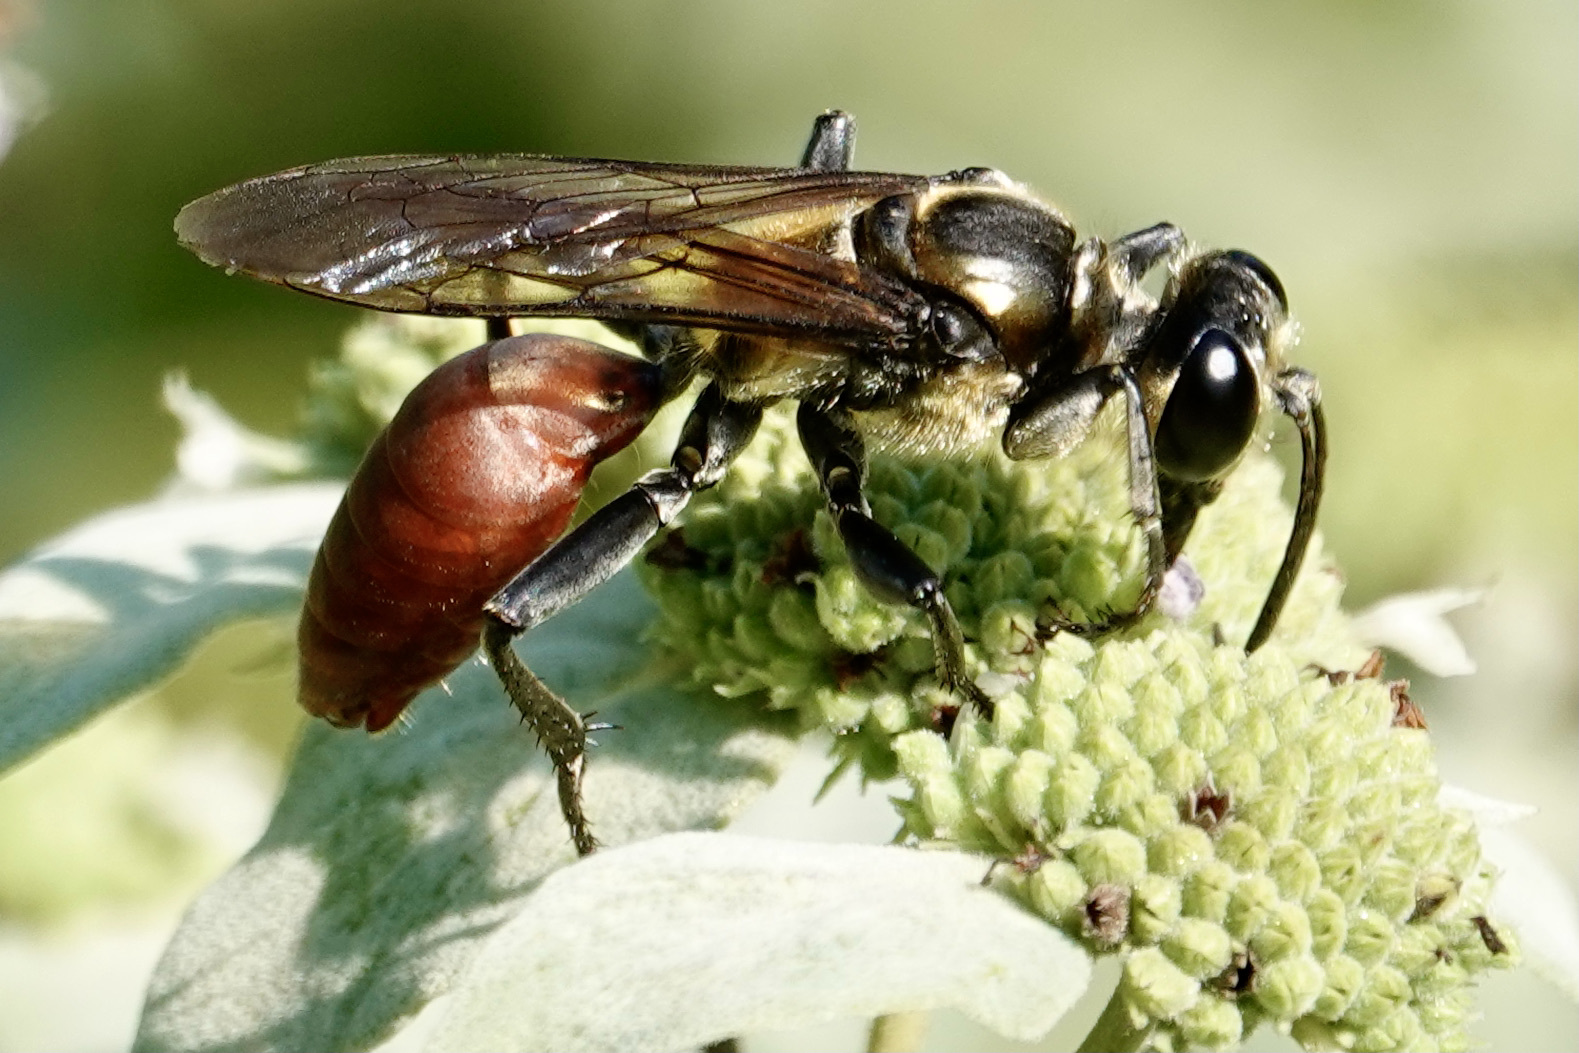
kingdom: Animalia
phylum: Arthropoda
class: Insecta
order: Hymenoptera
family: Sphecidae
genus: Sphex
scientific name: Sphex habenus
